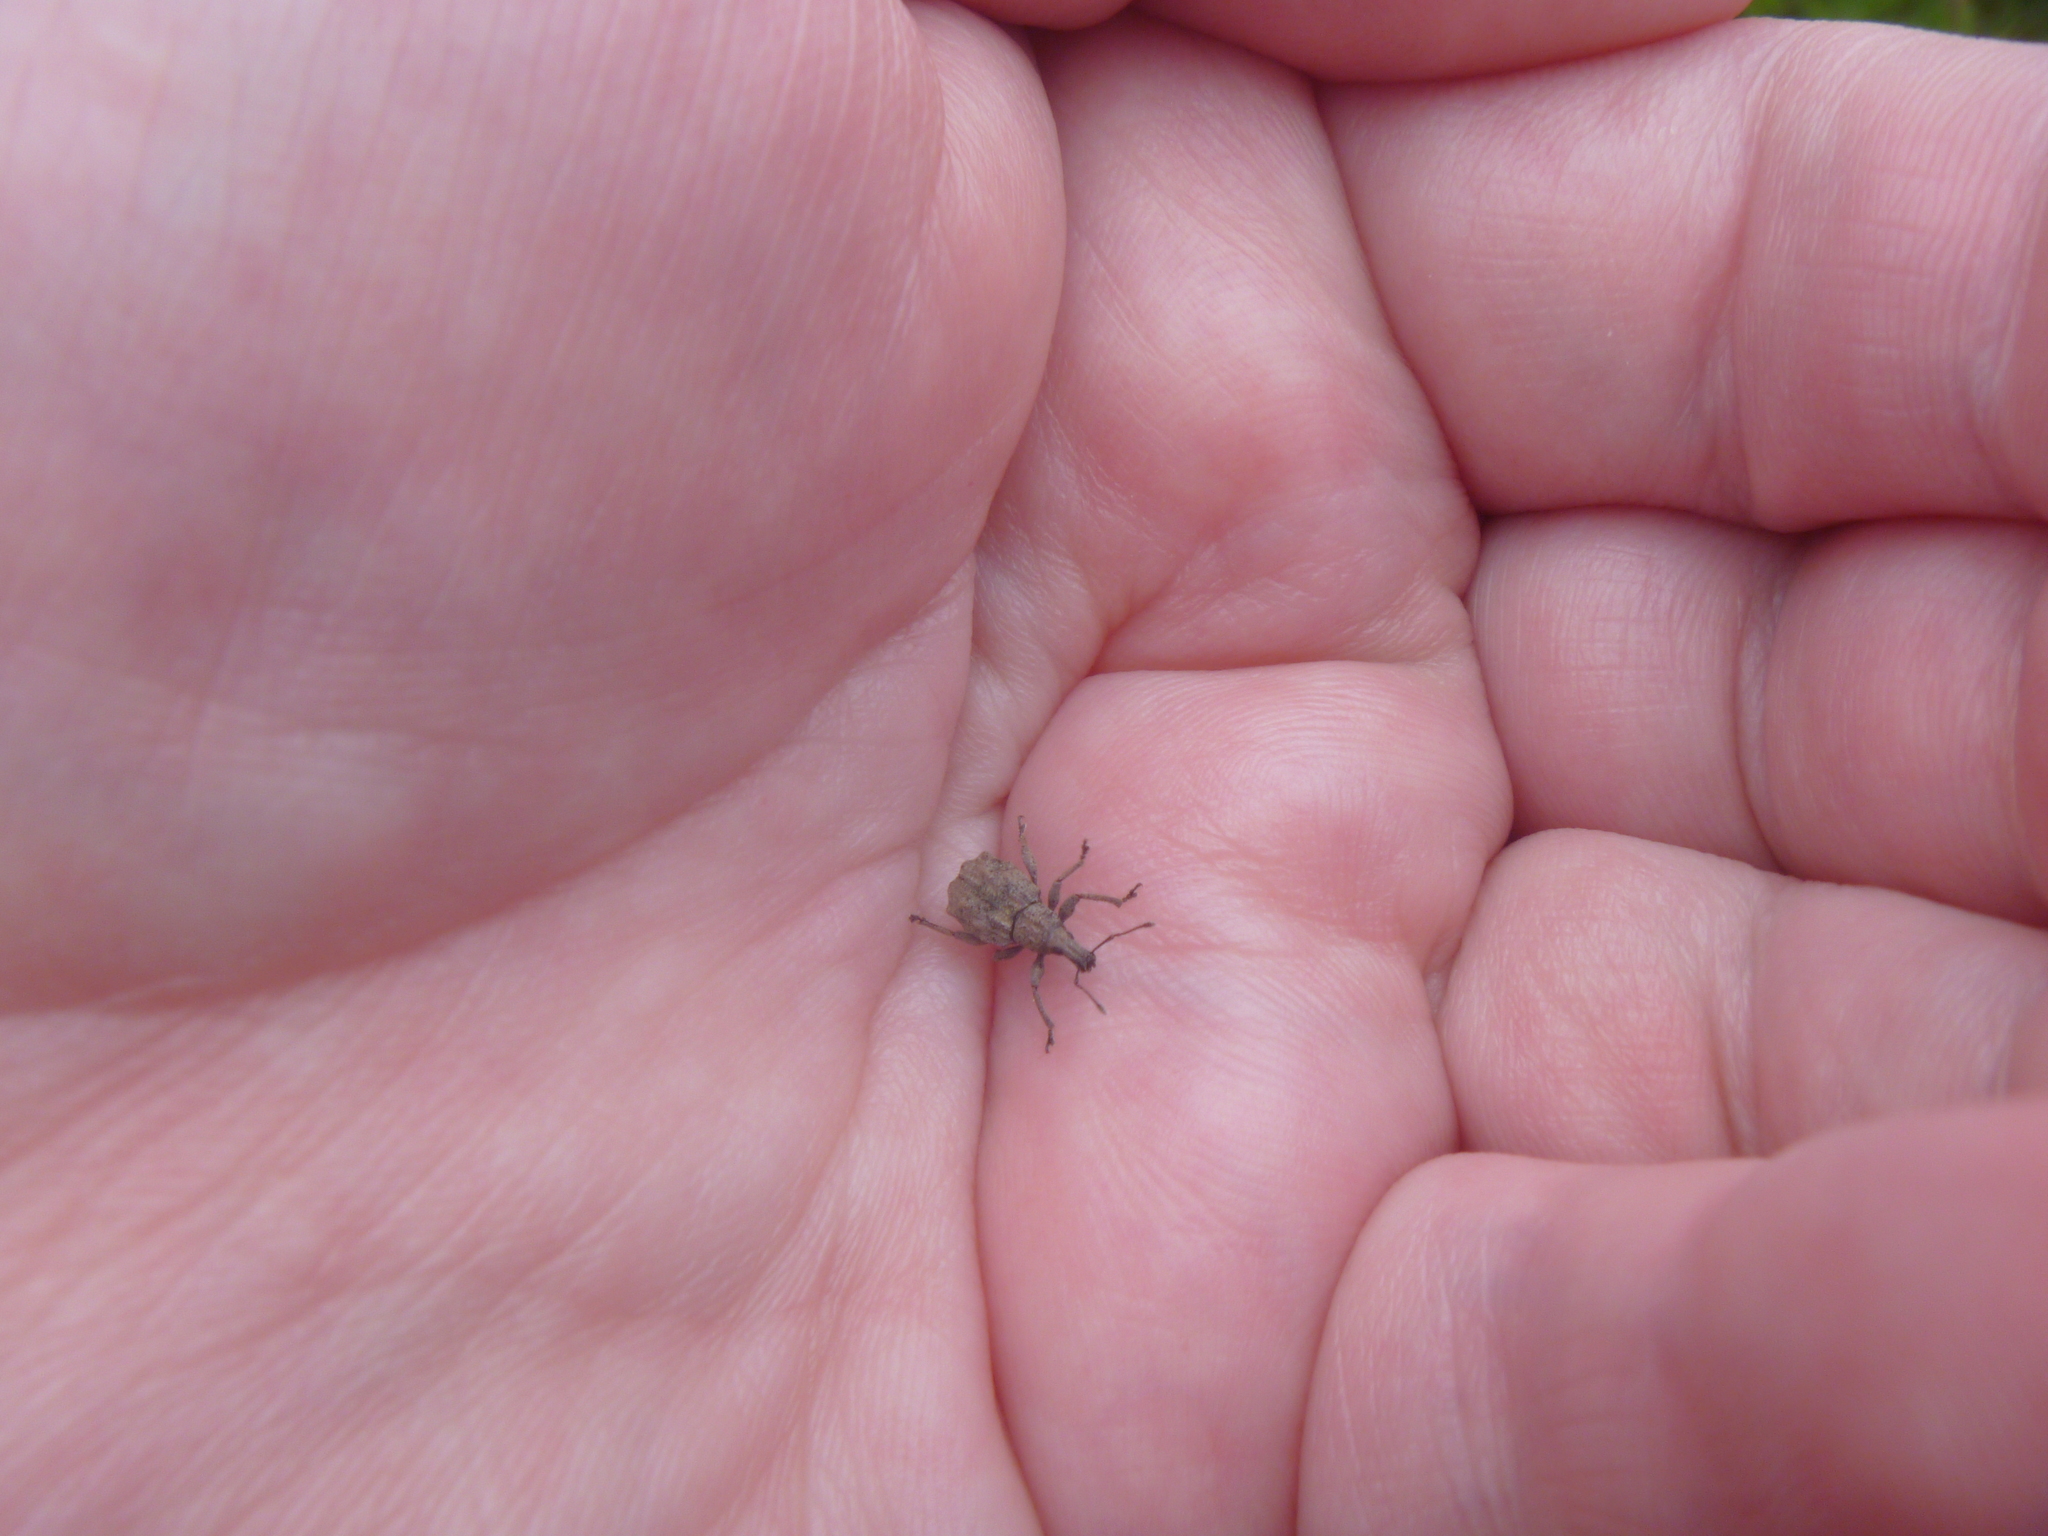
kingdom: Animalia
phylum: Arthropoda
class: Insecta
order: Coleoptera
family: Curculionidae
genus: Catoptes
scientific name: Catoptes censorius
